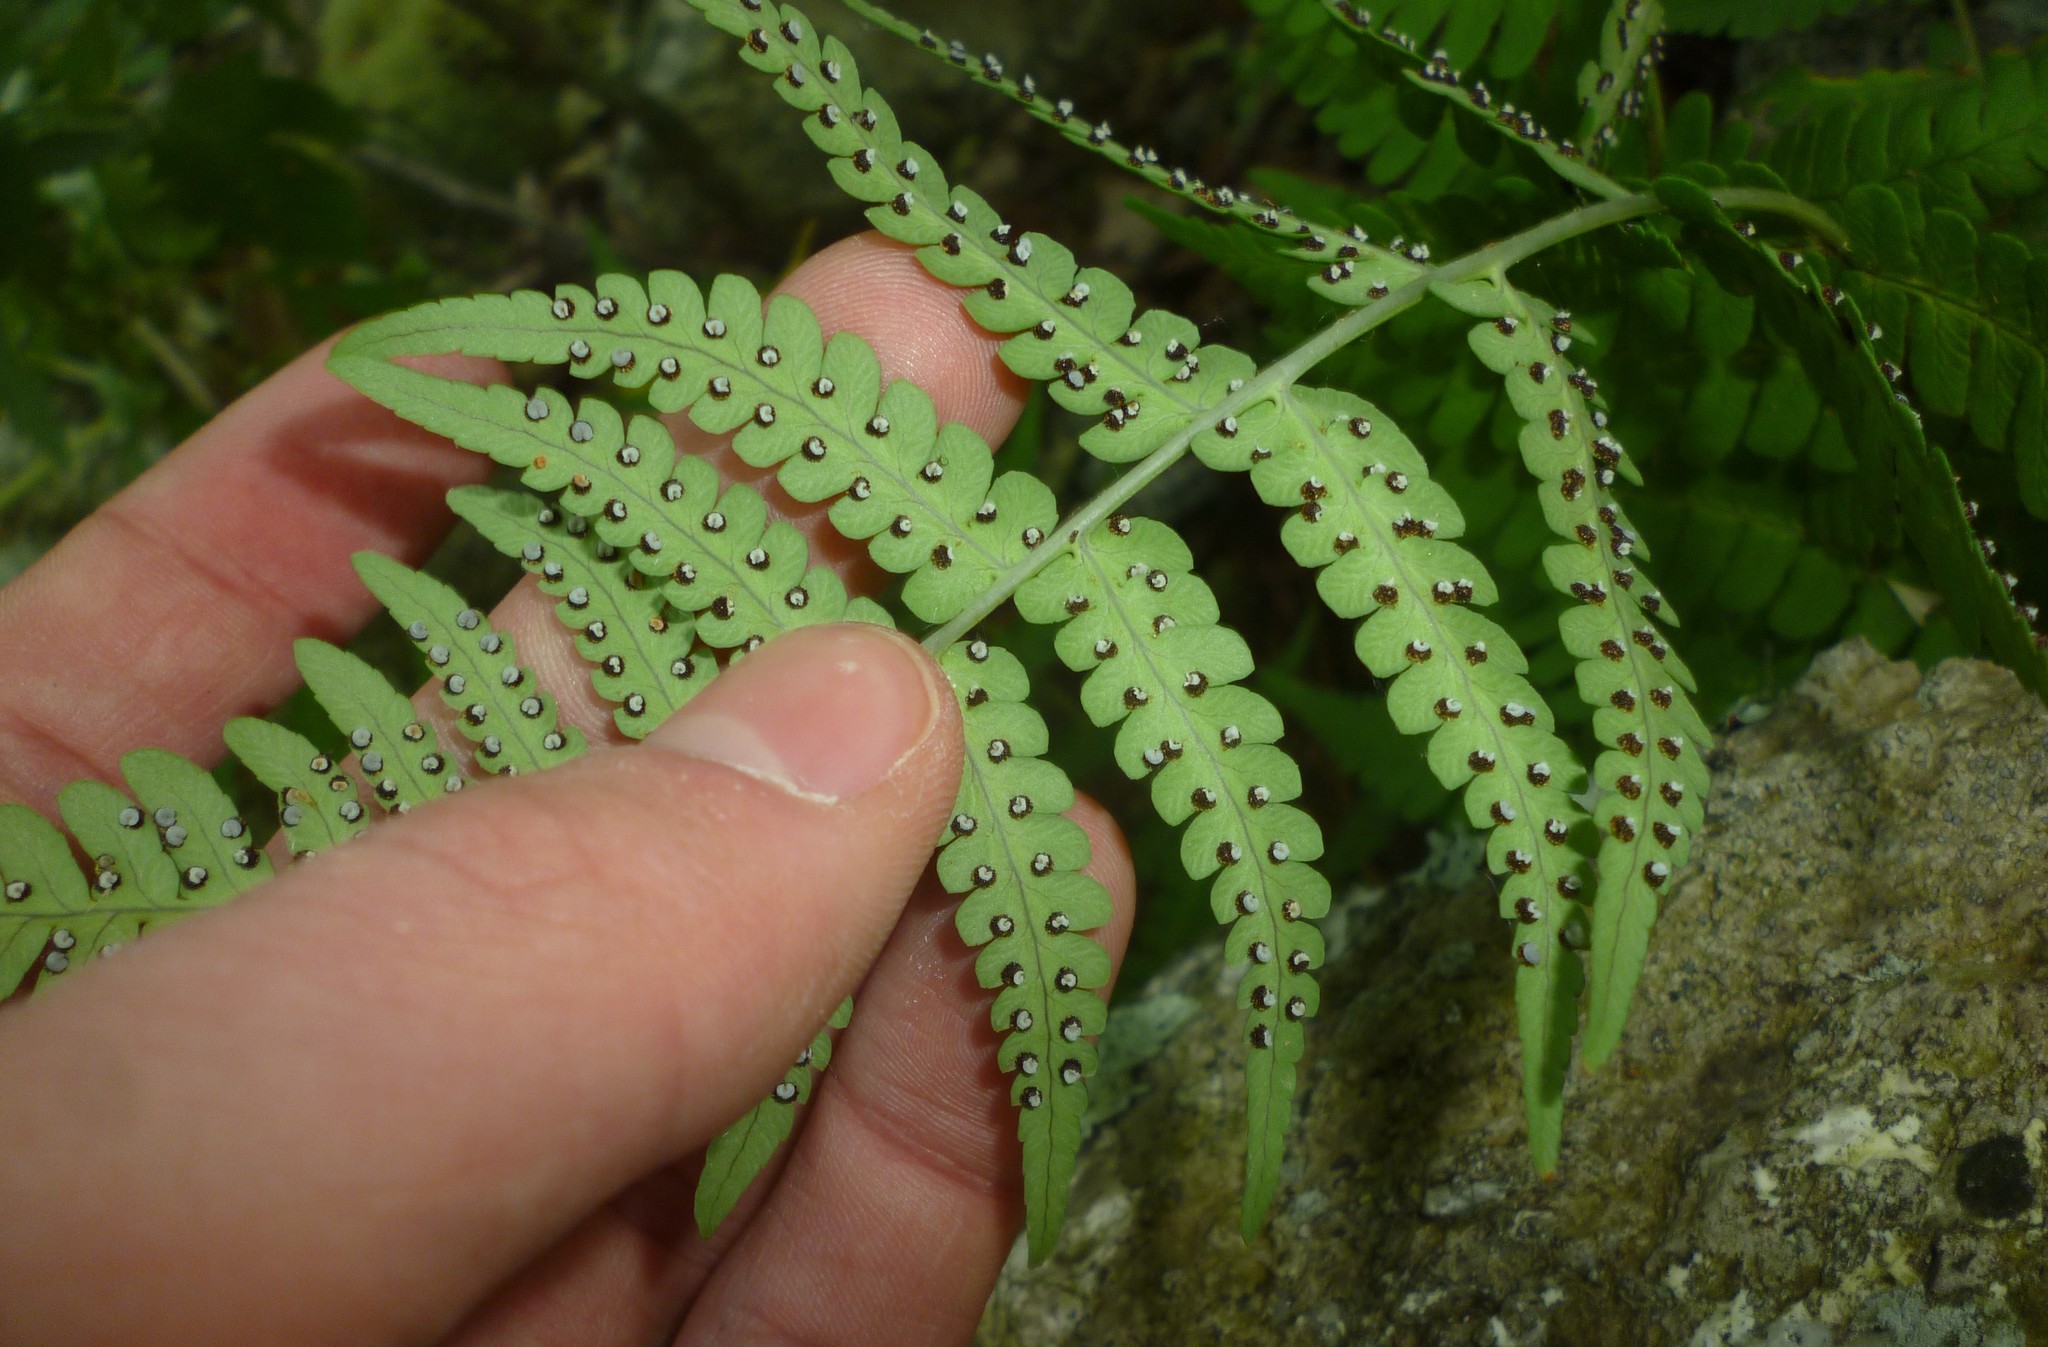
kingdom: Plantae
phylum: Tracheophyta
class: Polypodiopsida
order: Polypodiales
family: Dryopteridaceae
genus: Dryopteris
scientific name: Dryopteris marginalis
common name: Marginal wood fern
